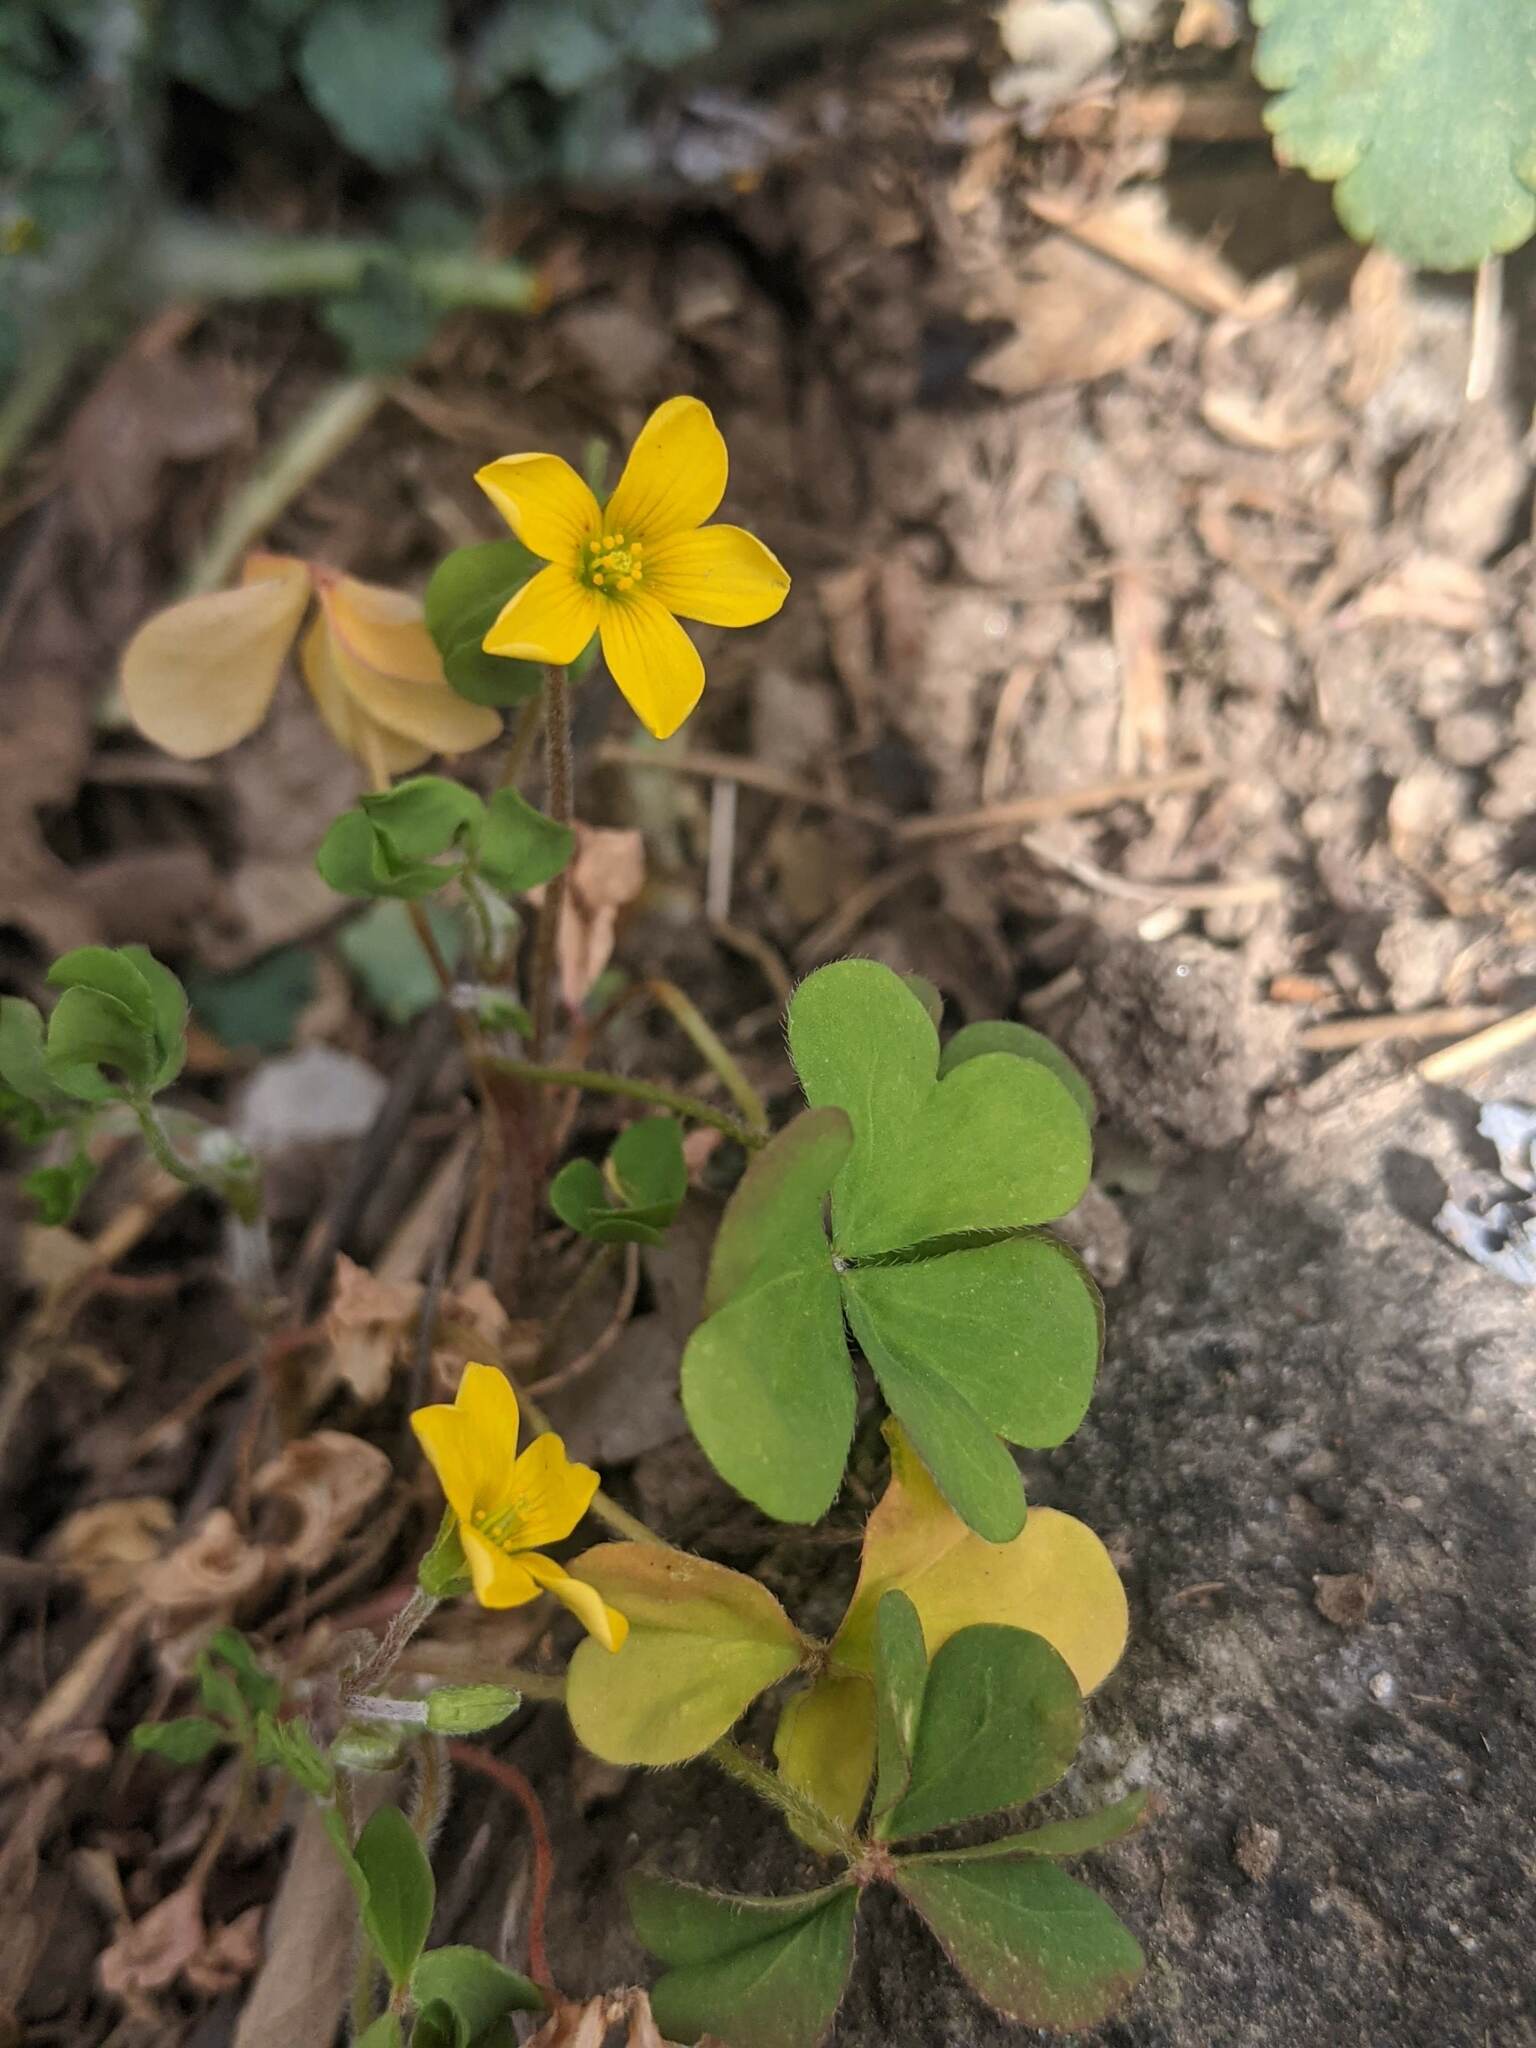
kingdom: Plantae
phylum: Tracheophyta
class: Magnoliopsida
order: Oxalidales
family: Oxalidaceae
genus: Oxalis
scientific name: Oxalis corniculata
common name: Procumbent yellow-sorrel
